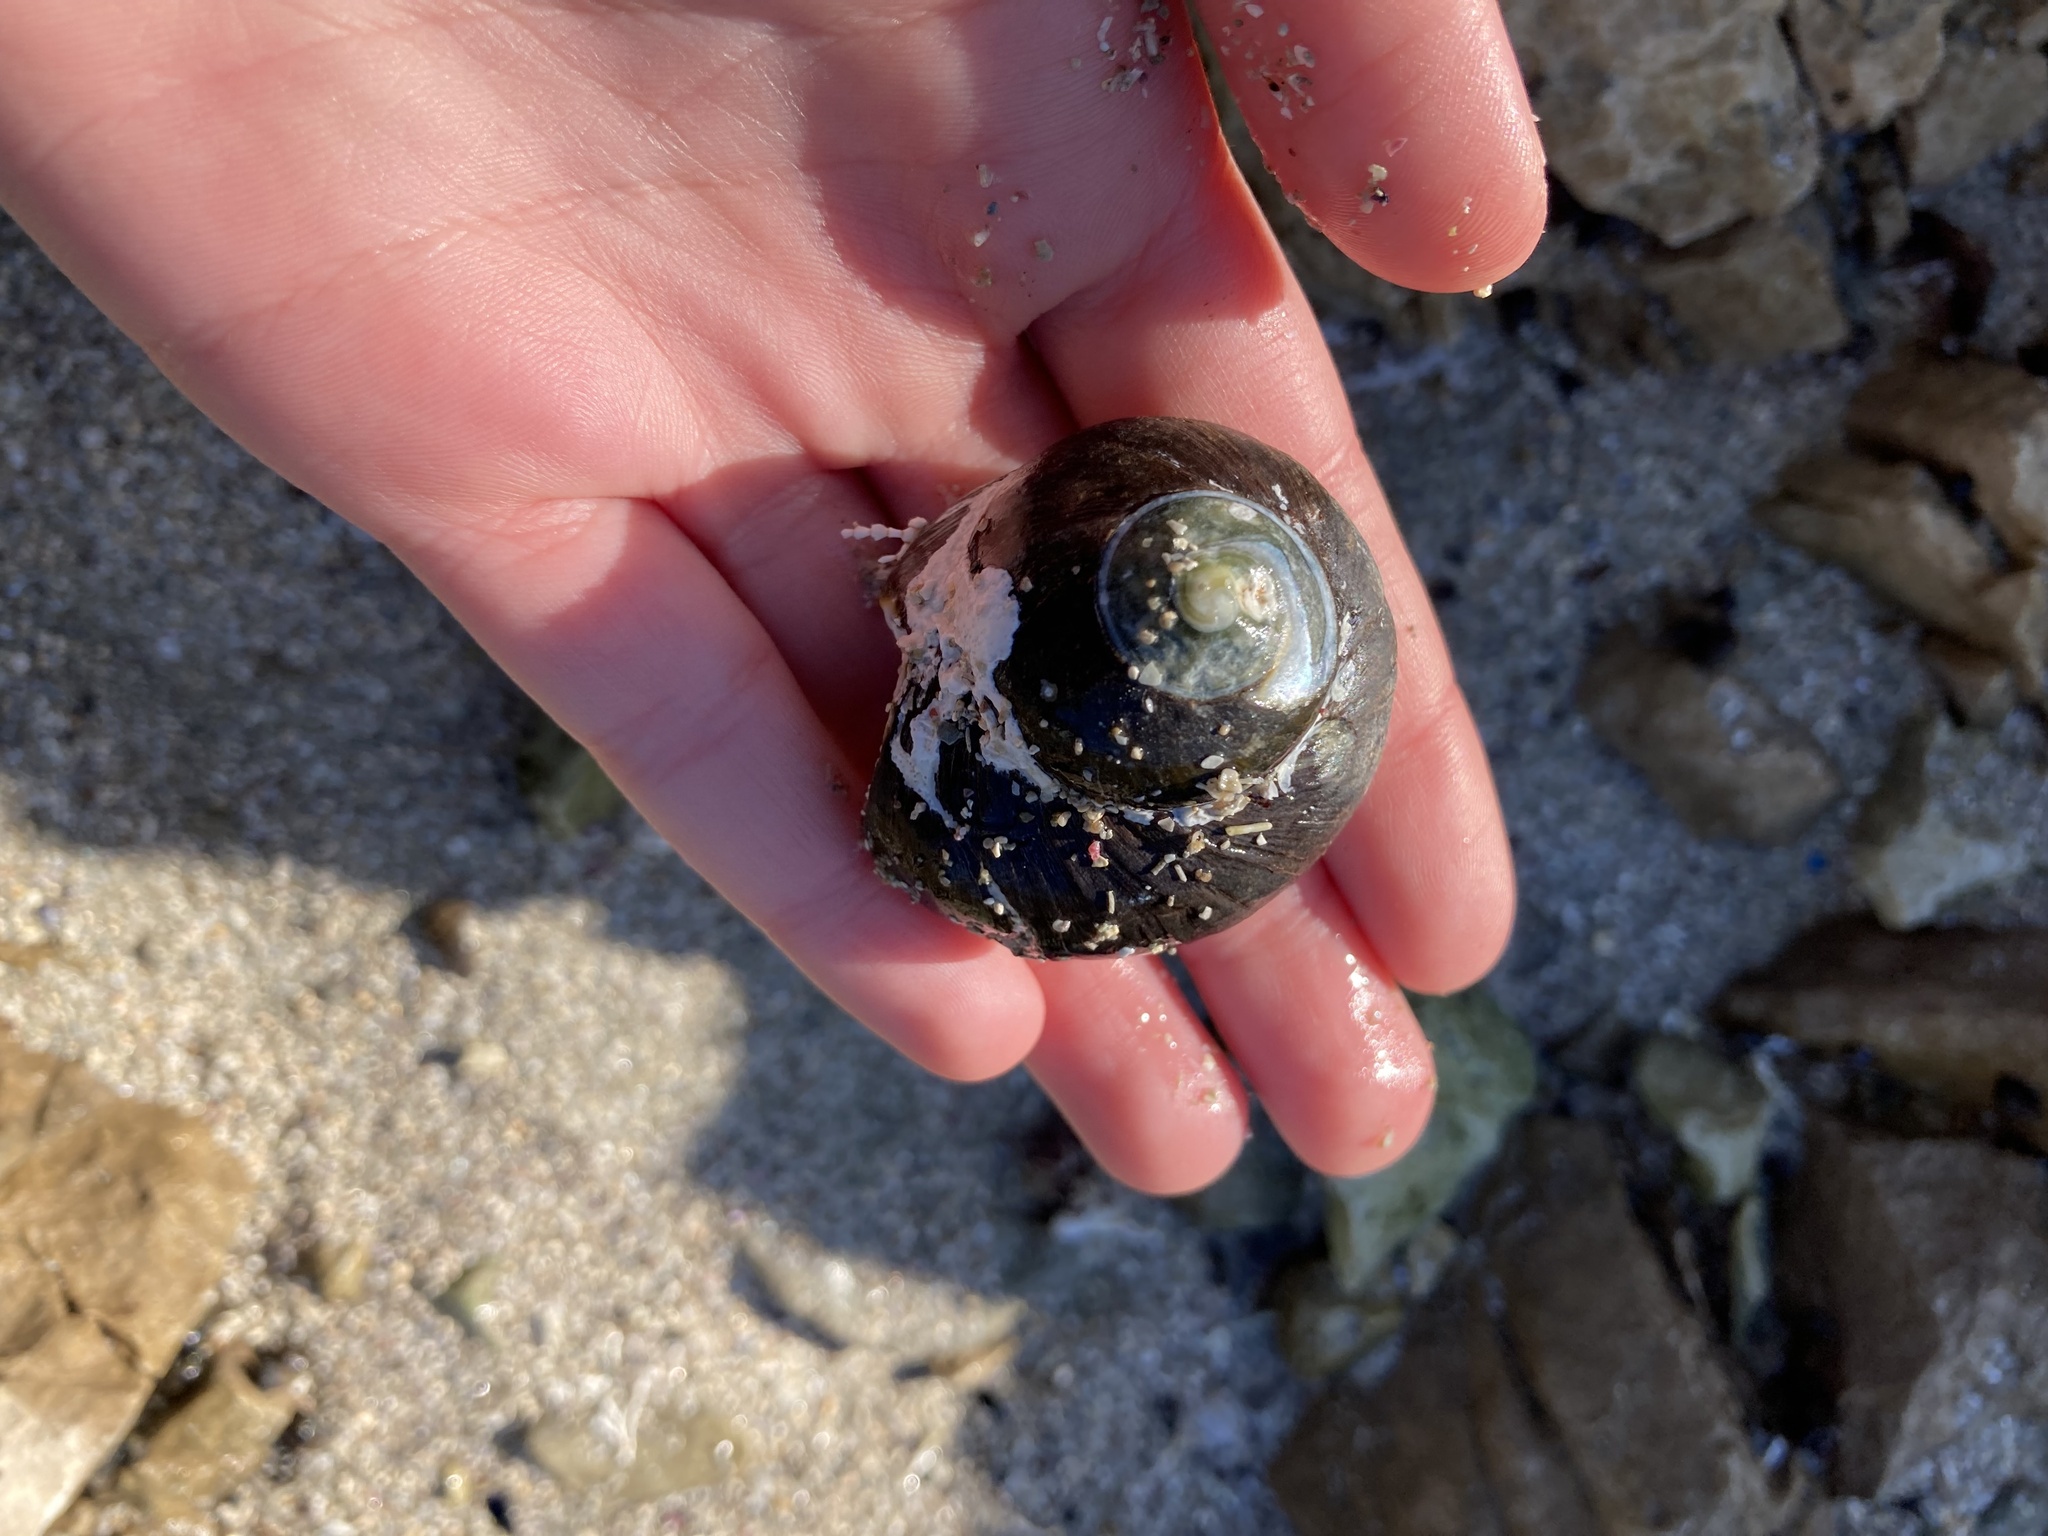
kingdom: Animalia
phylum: Mollusca
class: Gastropoda
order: Trochida
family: Turbinidae
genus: Lunella
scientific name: Lunella smaragda
